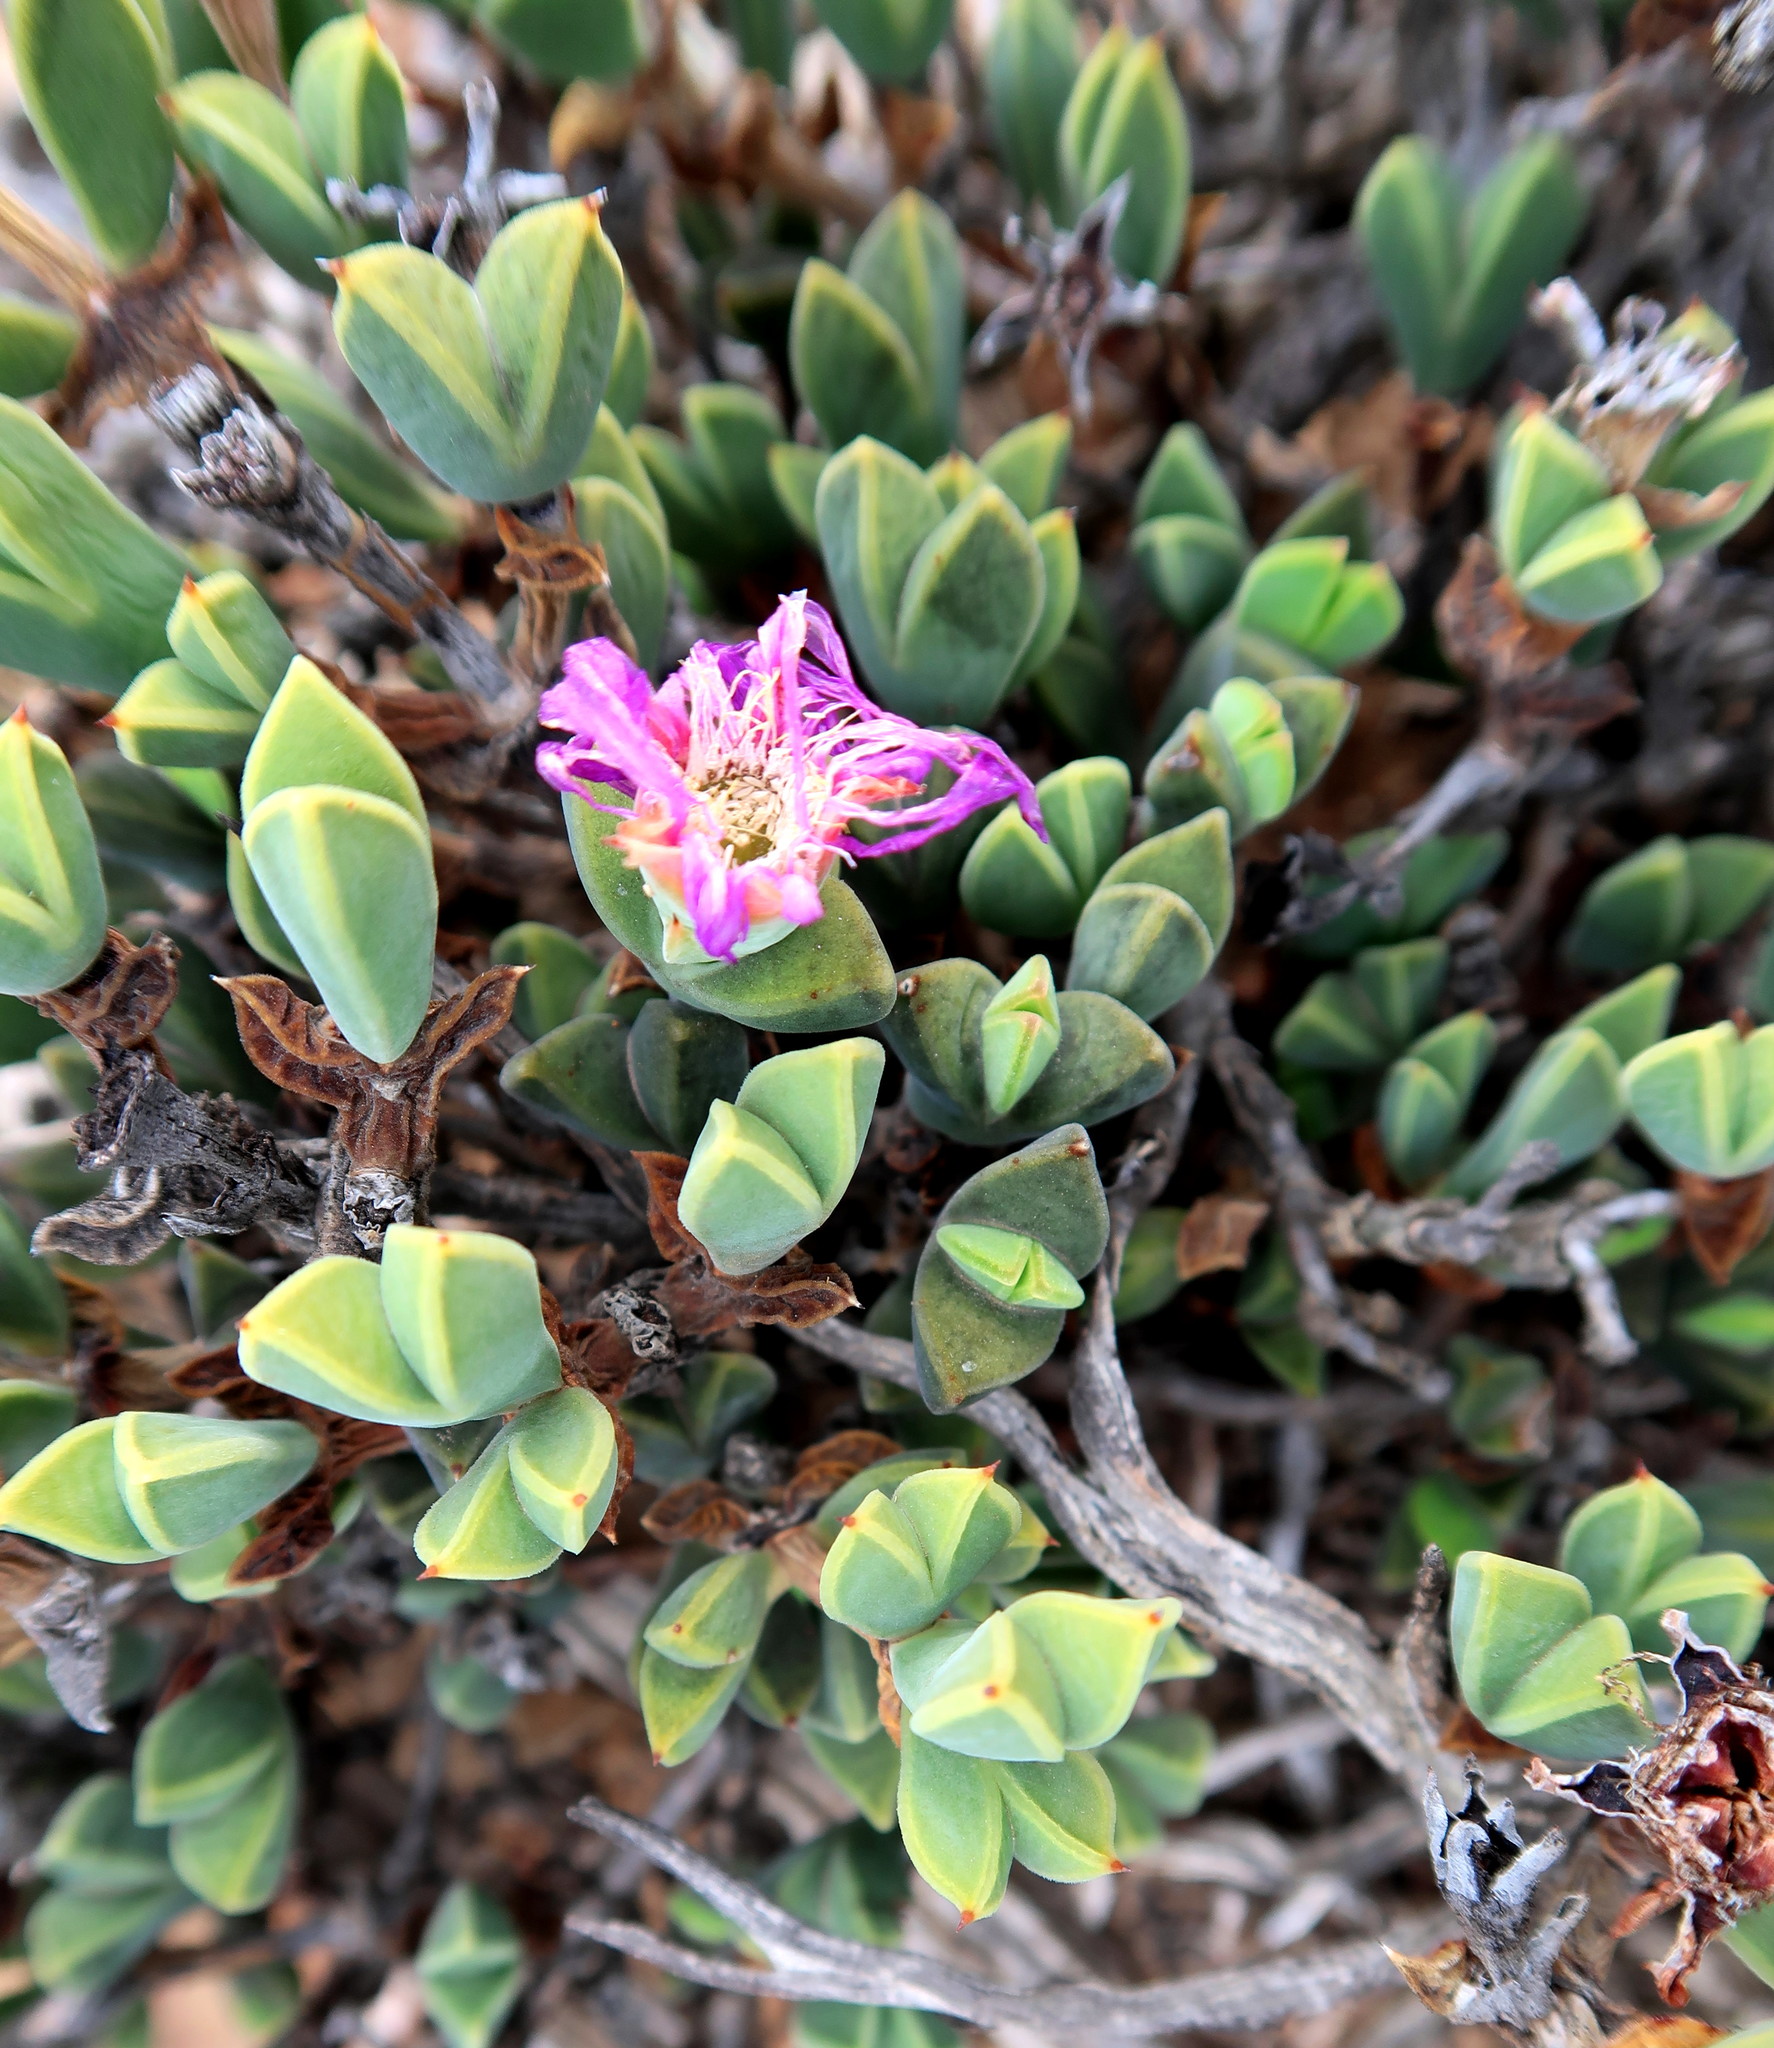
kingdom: Plantae
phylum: Tracheophyta
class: Magnoliopsida
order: Caryophyllales
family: Aizoaceae
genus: Braunsia
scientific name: Braunsia apiculata
